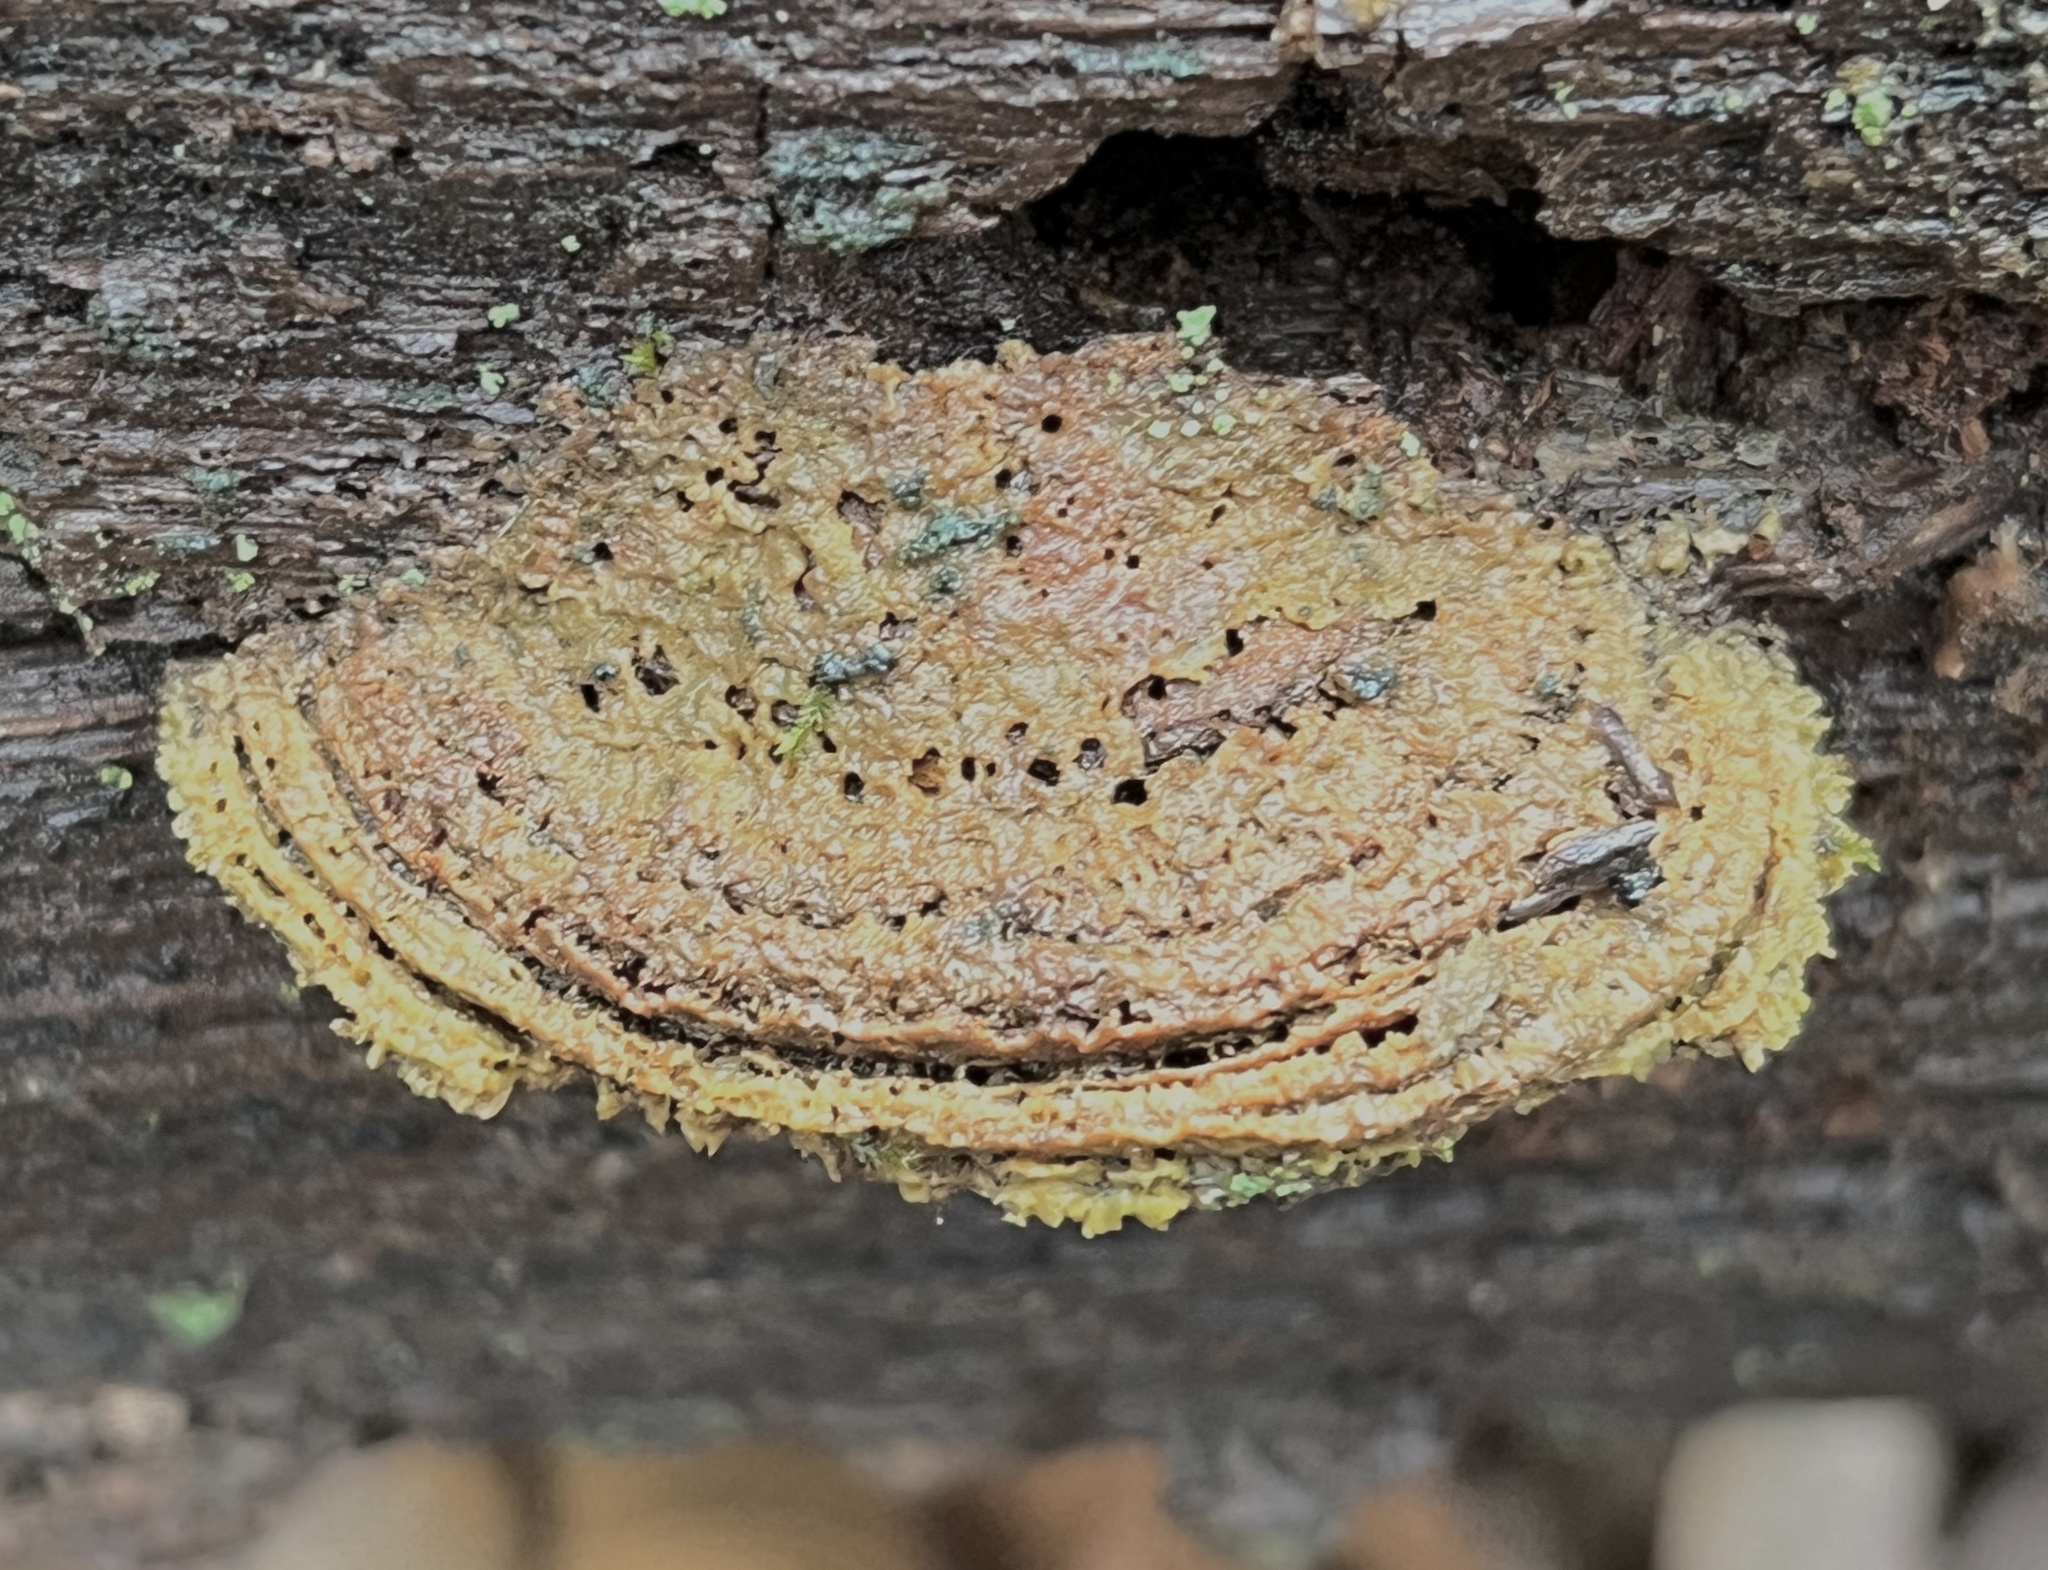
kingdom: Fungi
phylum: Basidiomycota
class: Agaricomycetes
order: Polyporales
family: Fomitopsidaceae
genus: Fomitopsis
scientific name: Fomitopsis
